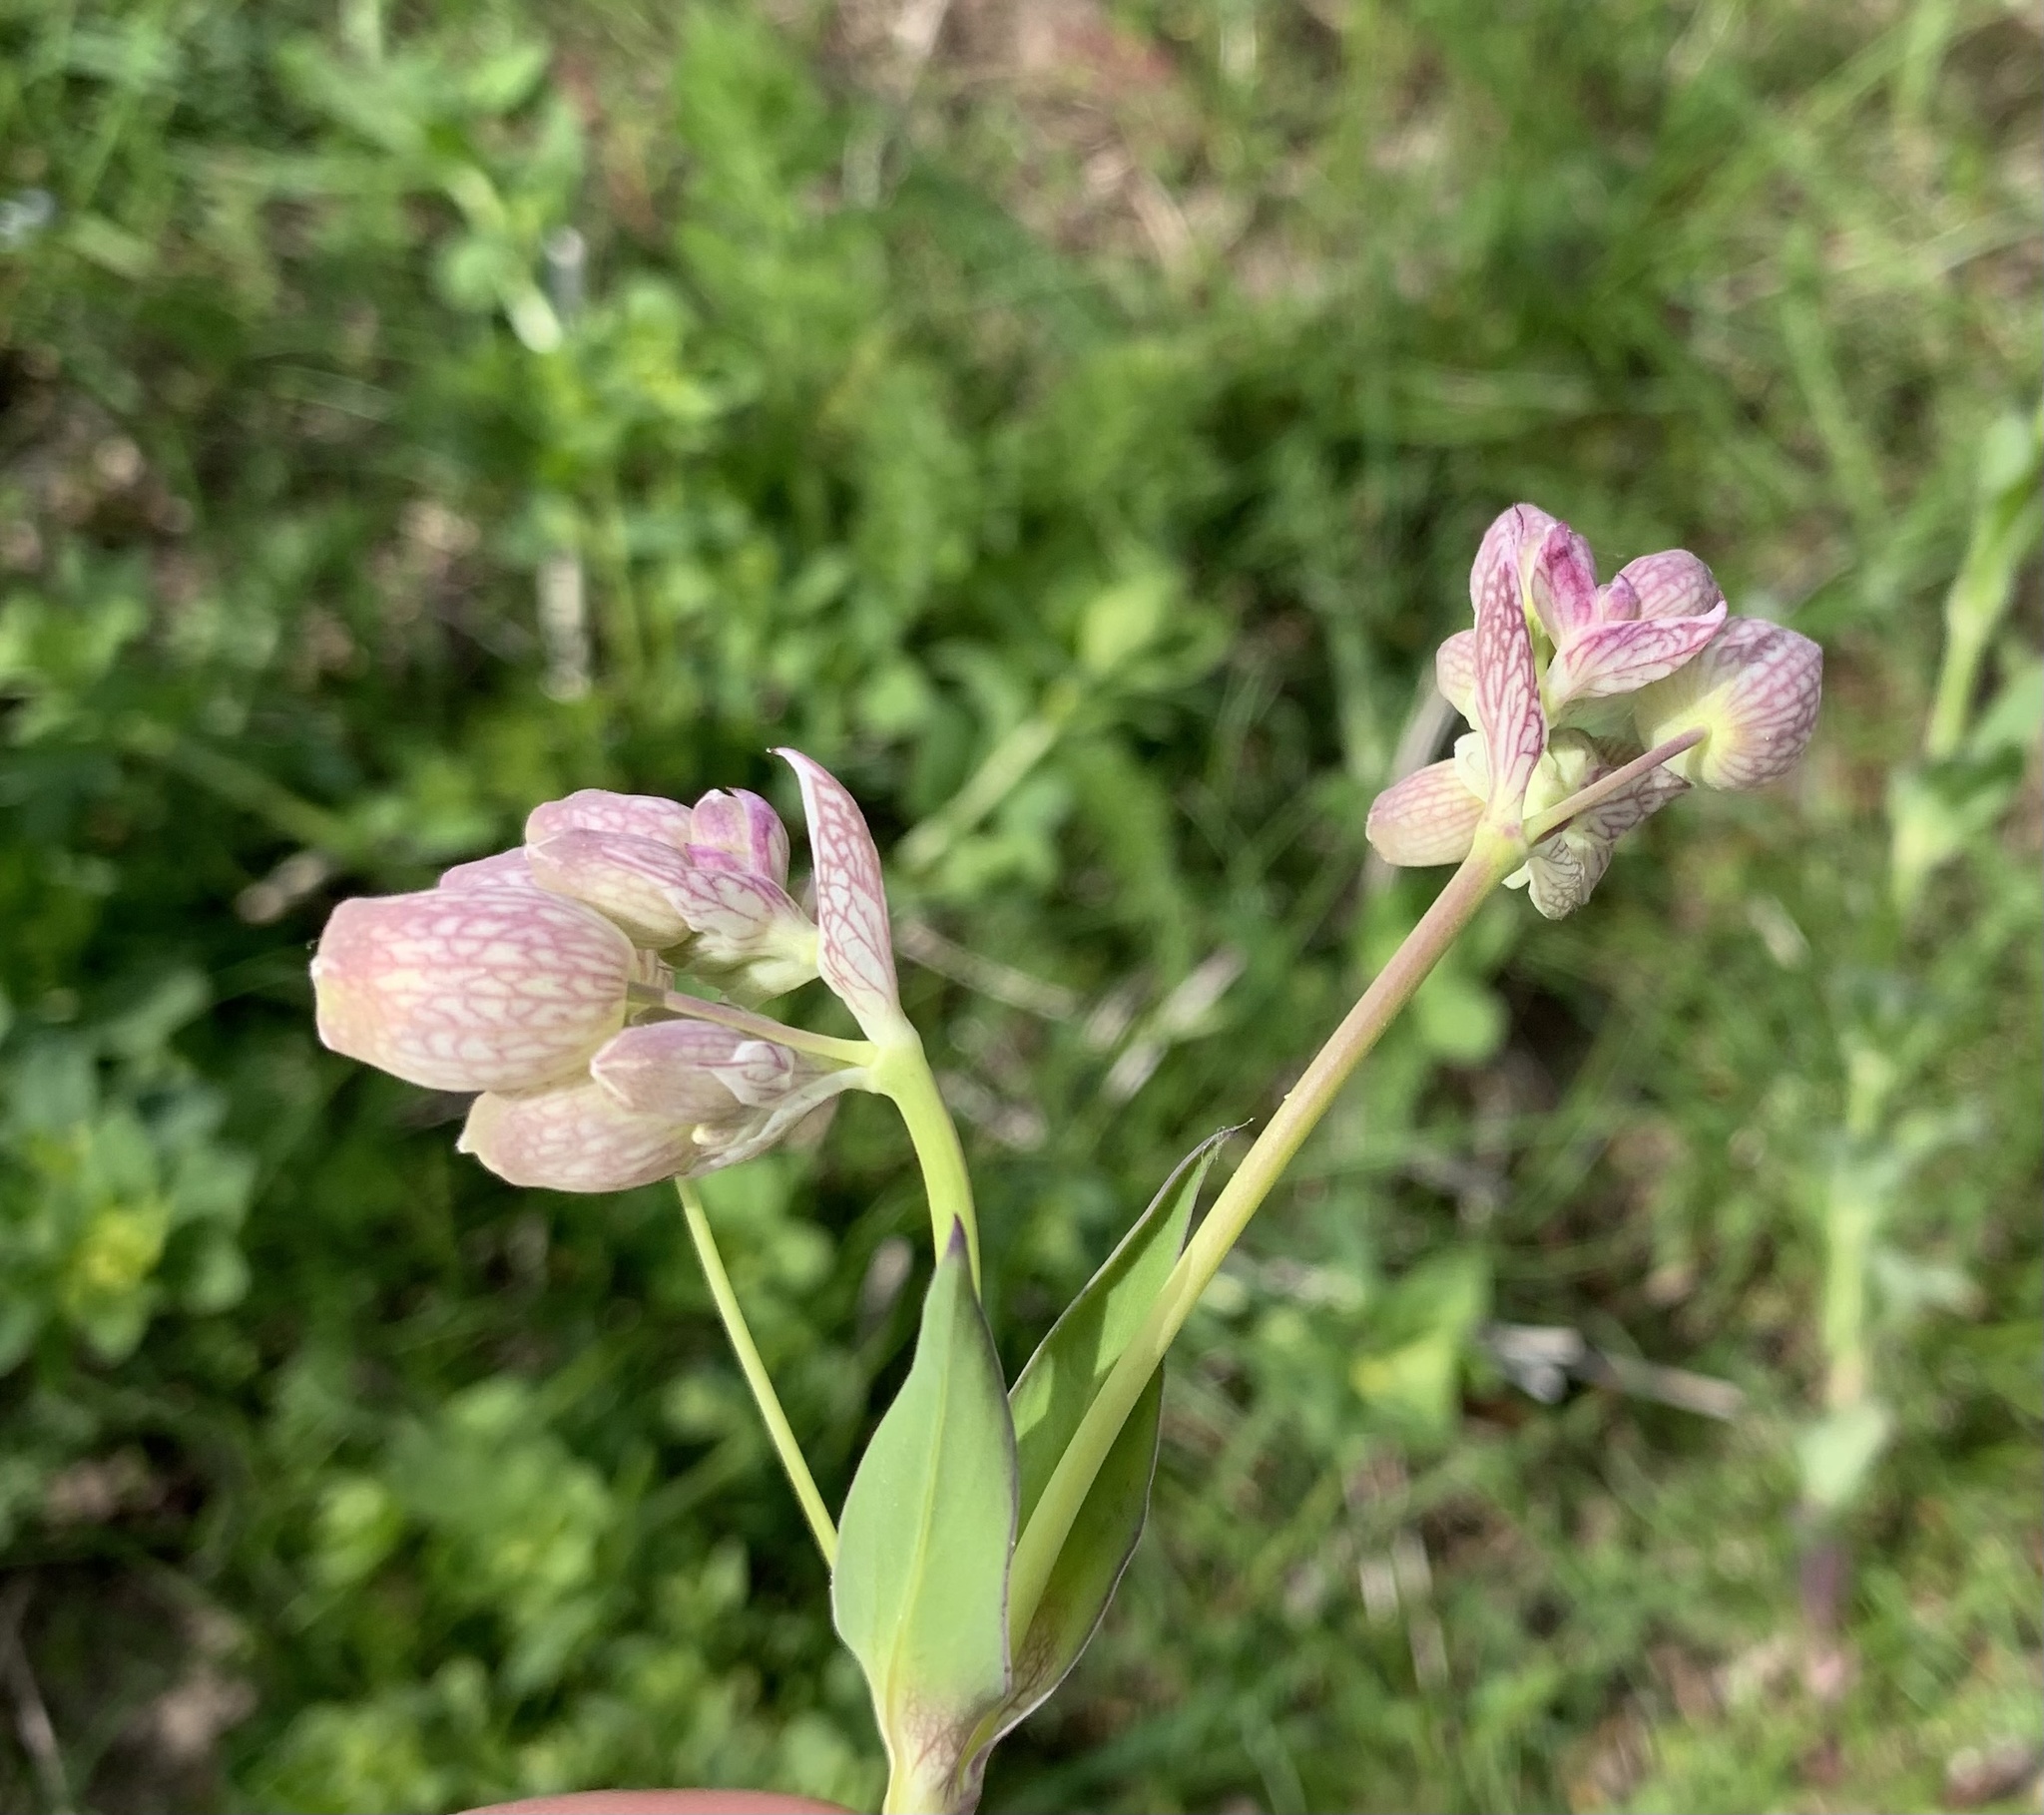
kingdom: Plantae
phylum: Tracheophyta
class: Magnoliopsida
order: Caryophyllales
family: Caryophyllaceae
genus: Silene
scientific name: Silene vulgaris
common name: Bladder campion
